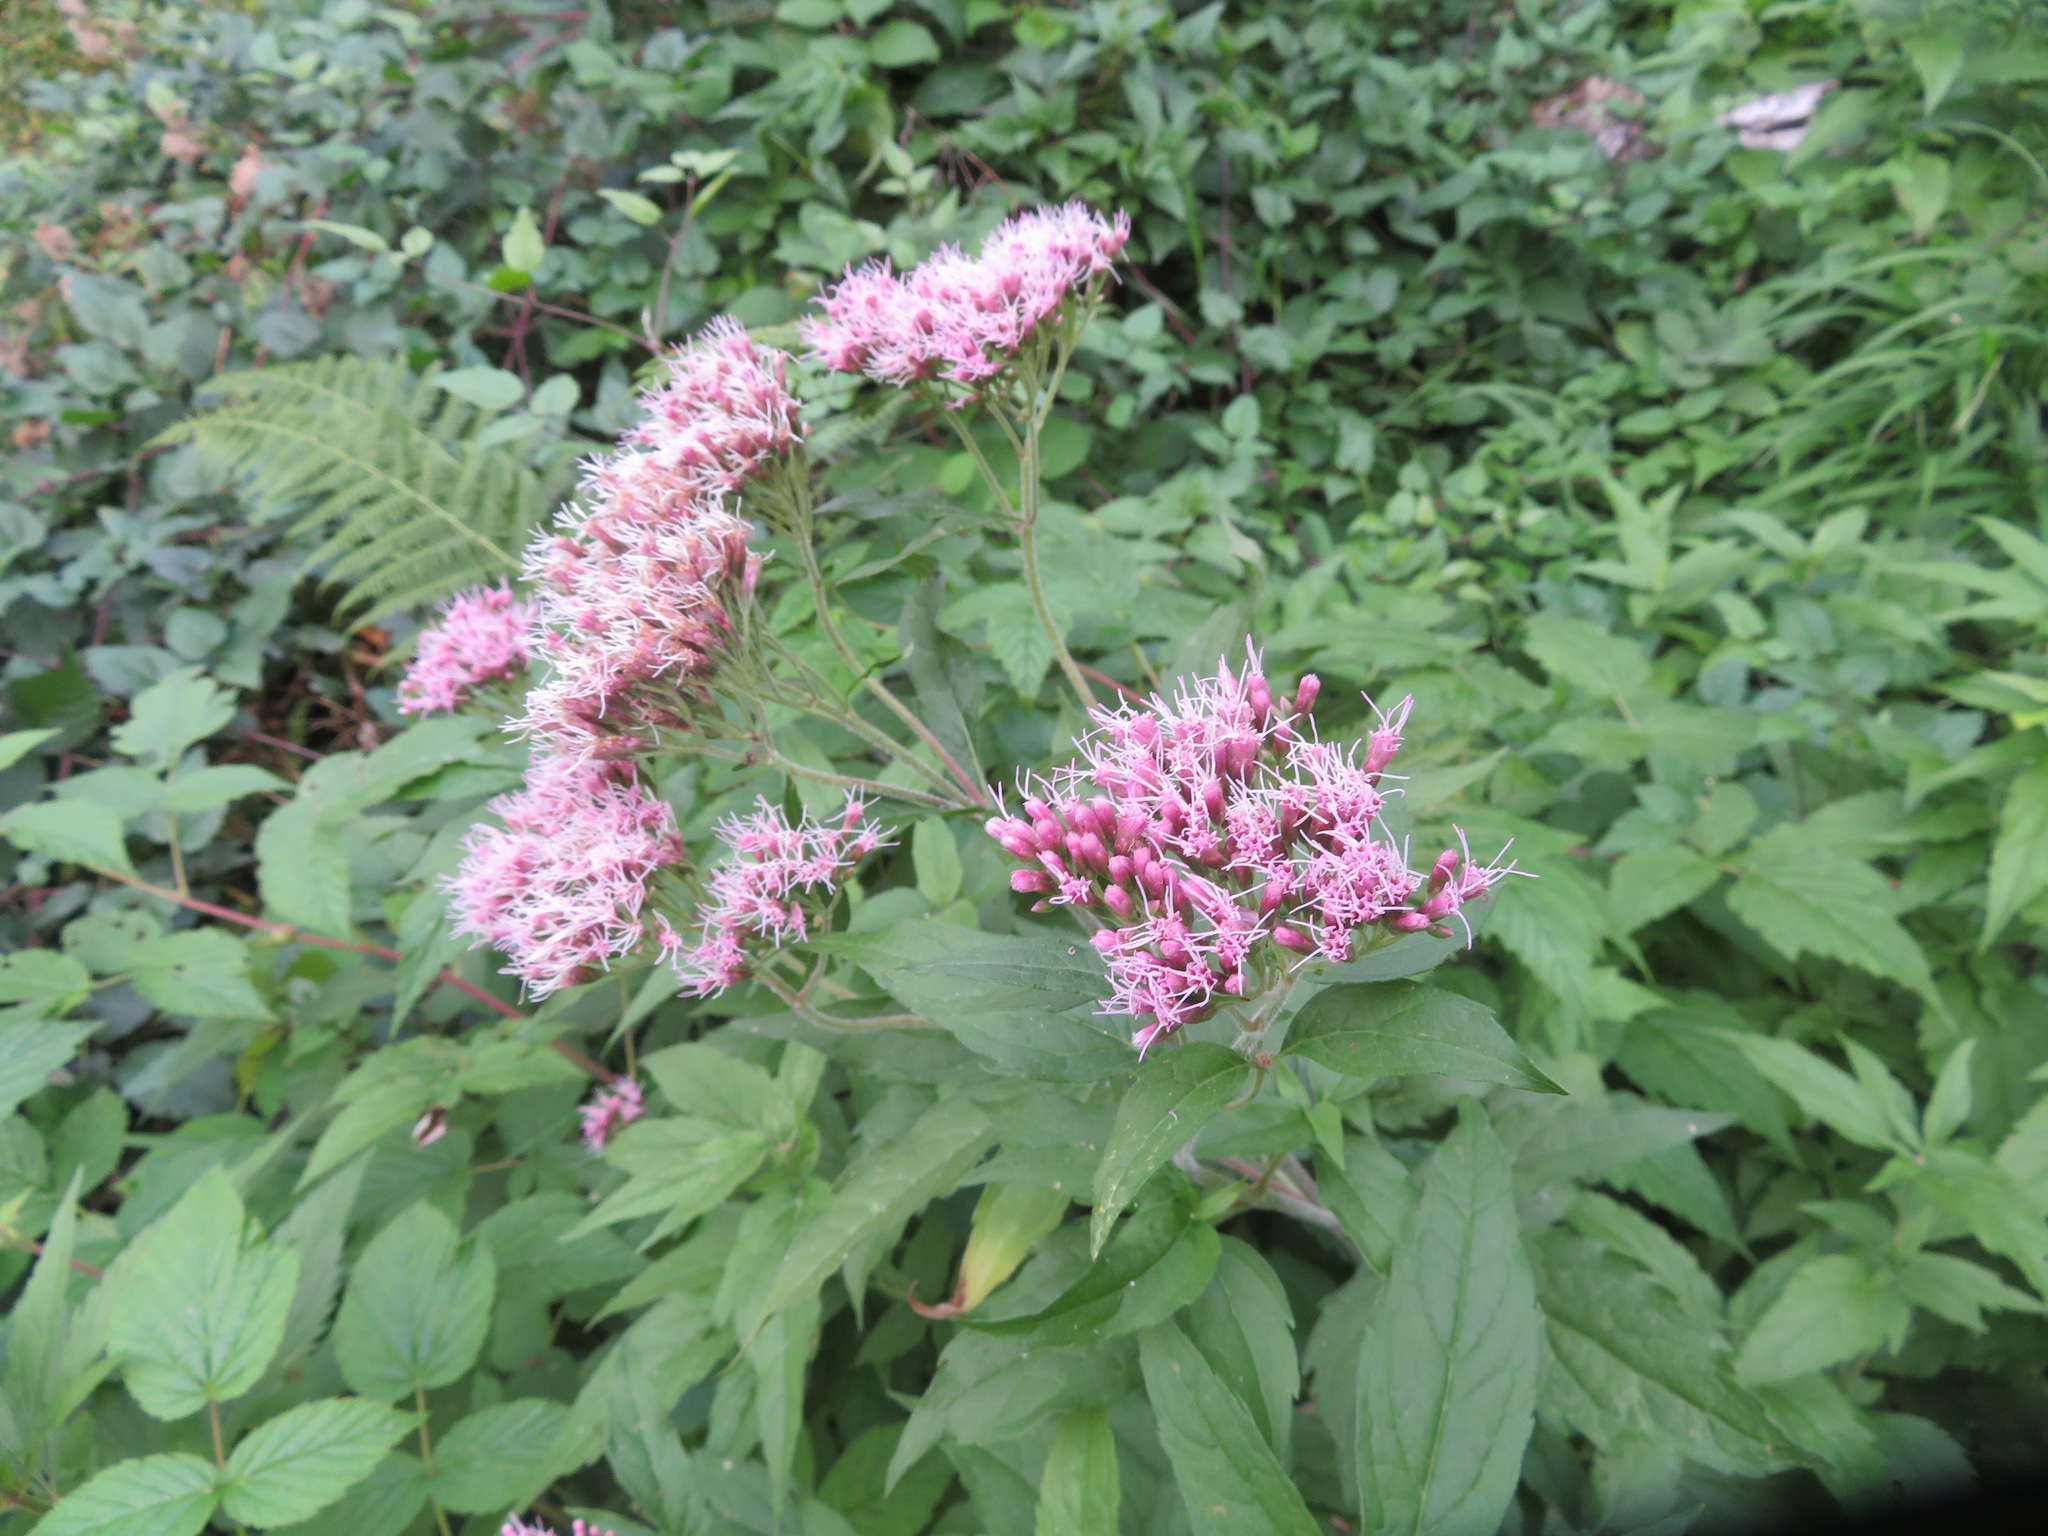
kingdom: Plantae
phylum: Tracheophyta
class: Magnoliopsida
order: Asterales
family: Asteraceae
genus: Eupatorium
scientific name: Eupatorium cannabinum
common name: Hemp-agrimony
